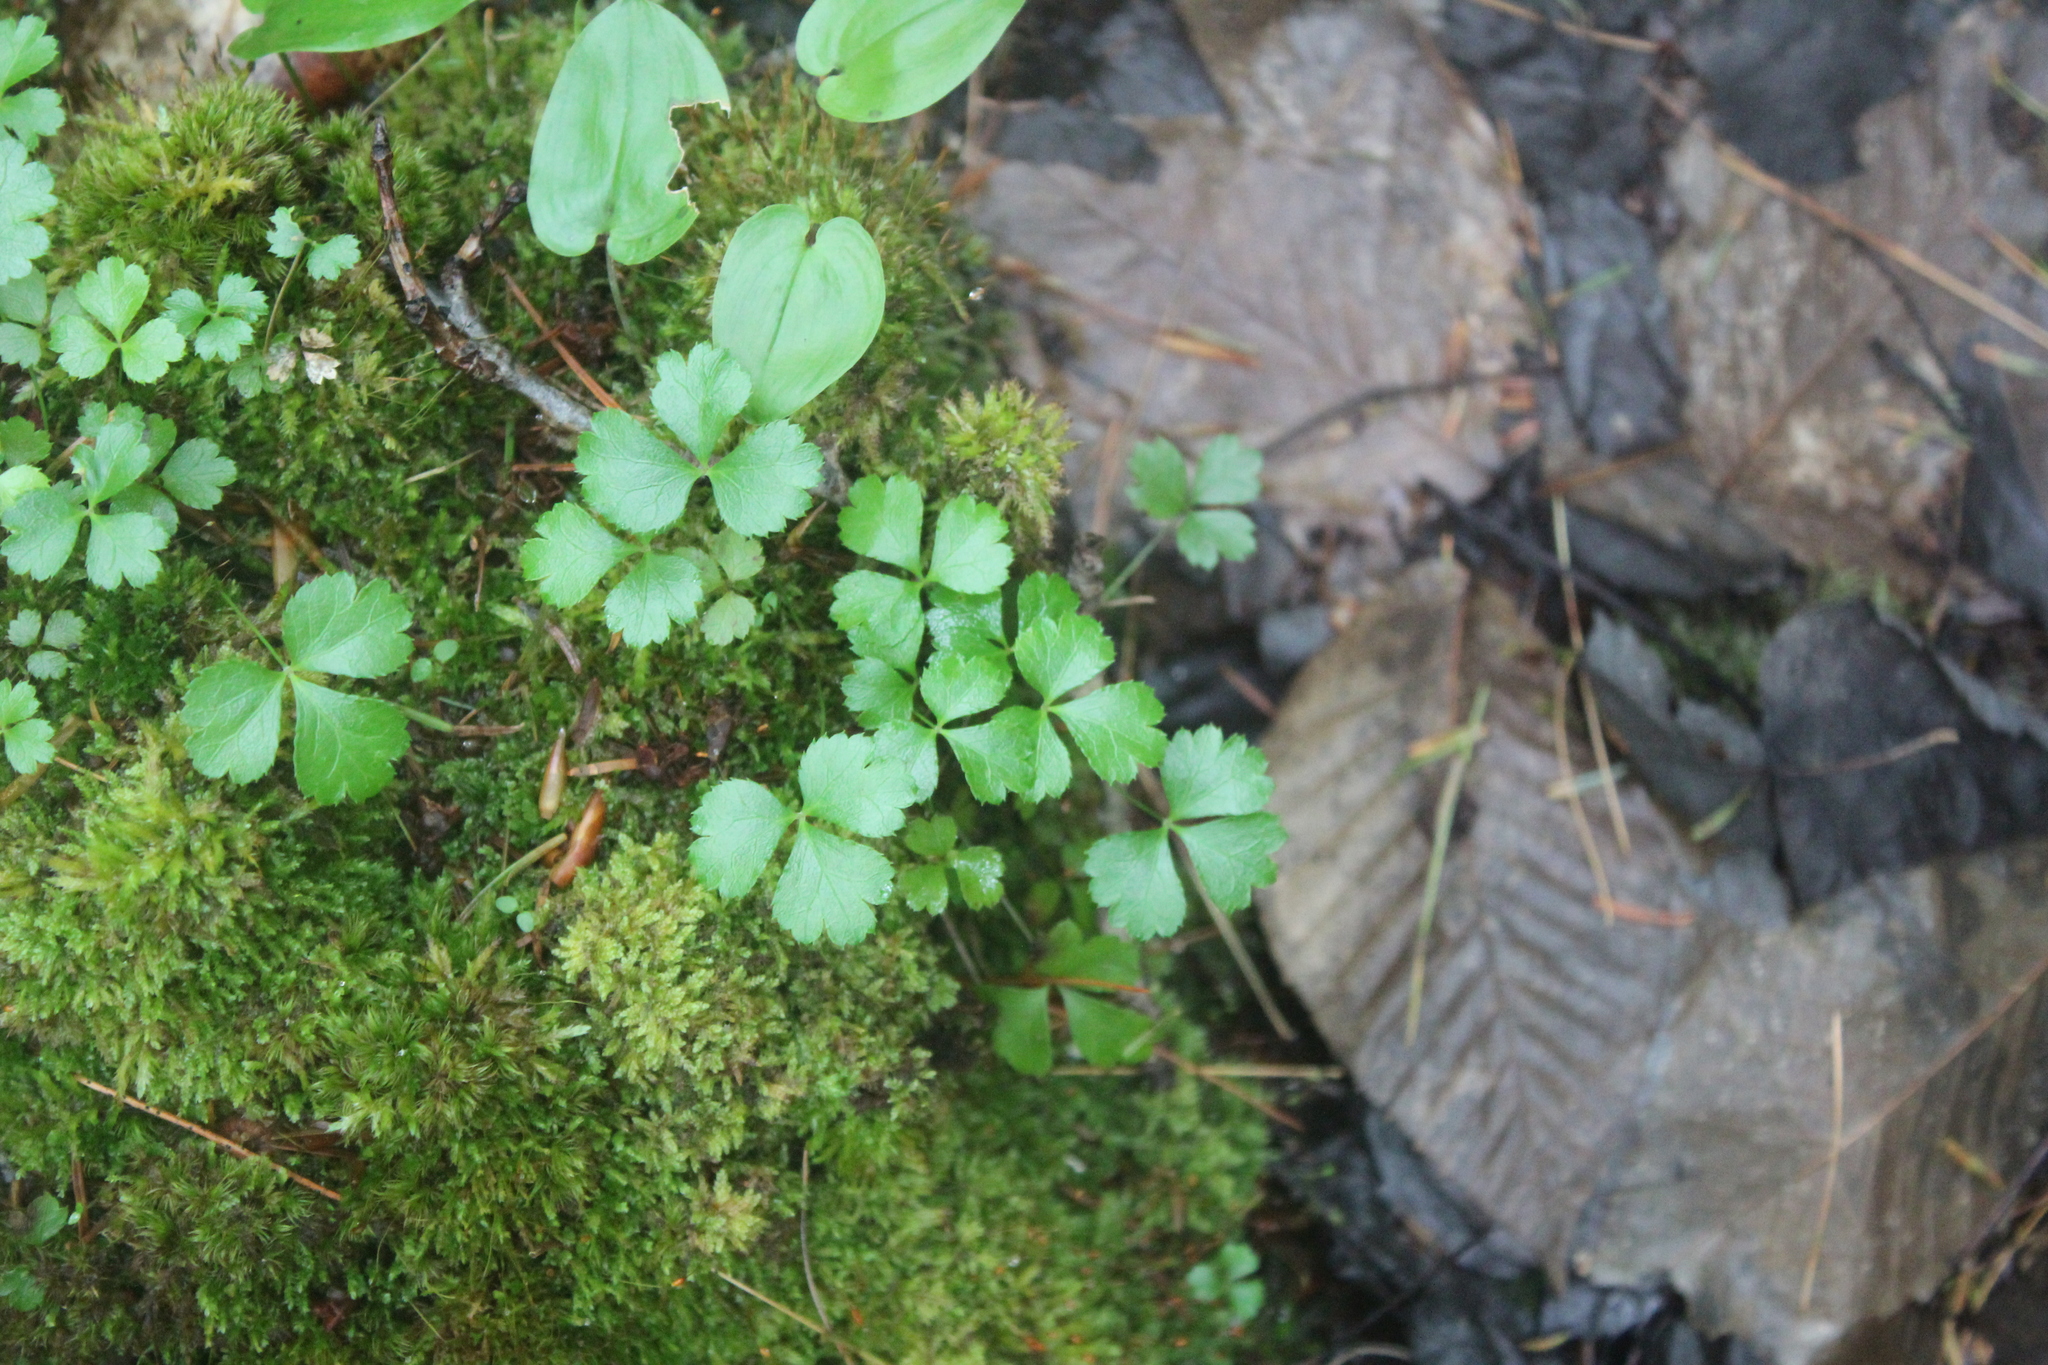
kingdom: Plantae
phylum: Tracheophyta
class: Magnoliopsida
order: Ranunculales
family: Ranunculaceae
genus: Coptis
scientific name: Coptis trifolia
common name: Canker-root
